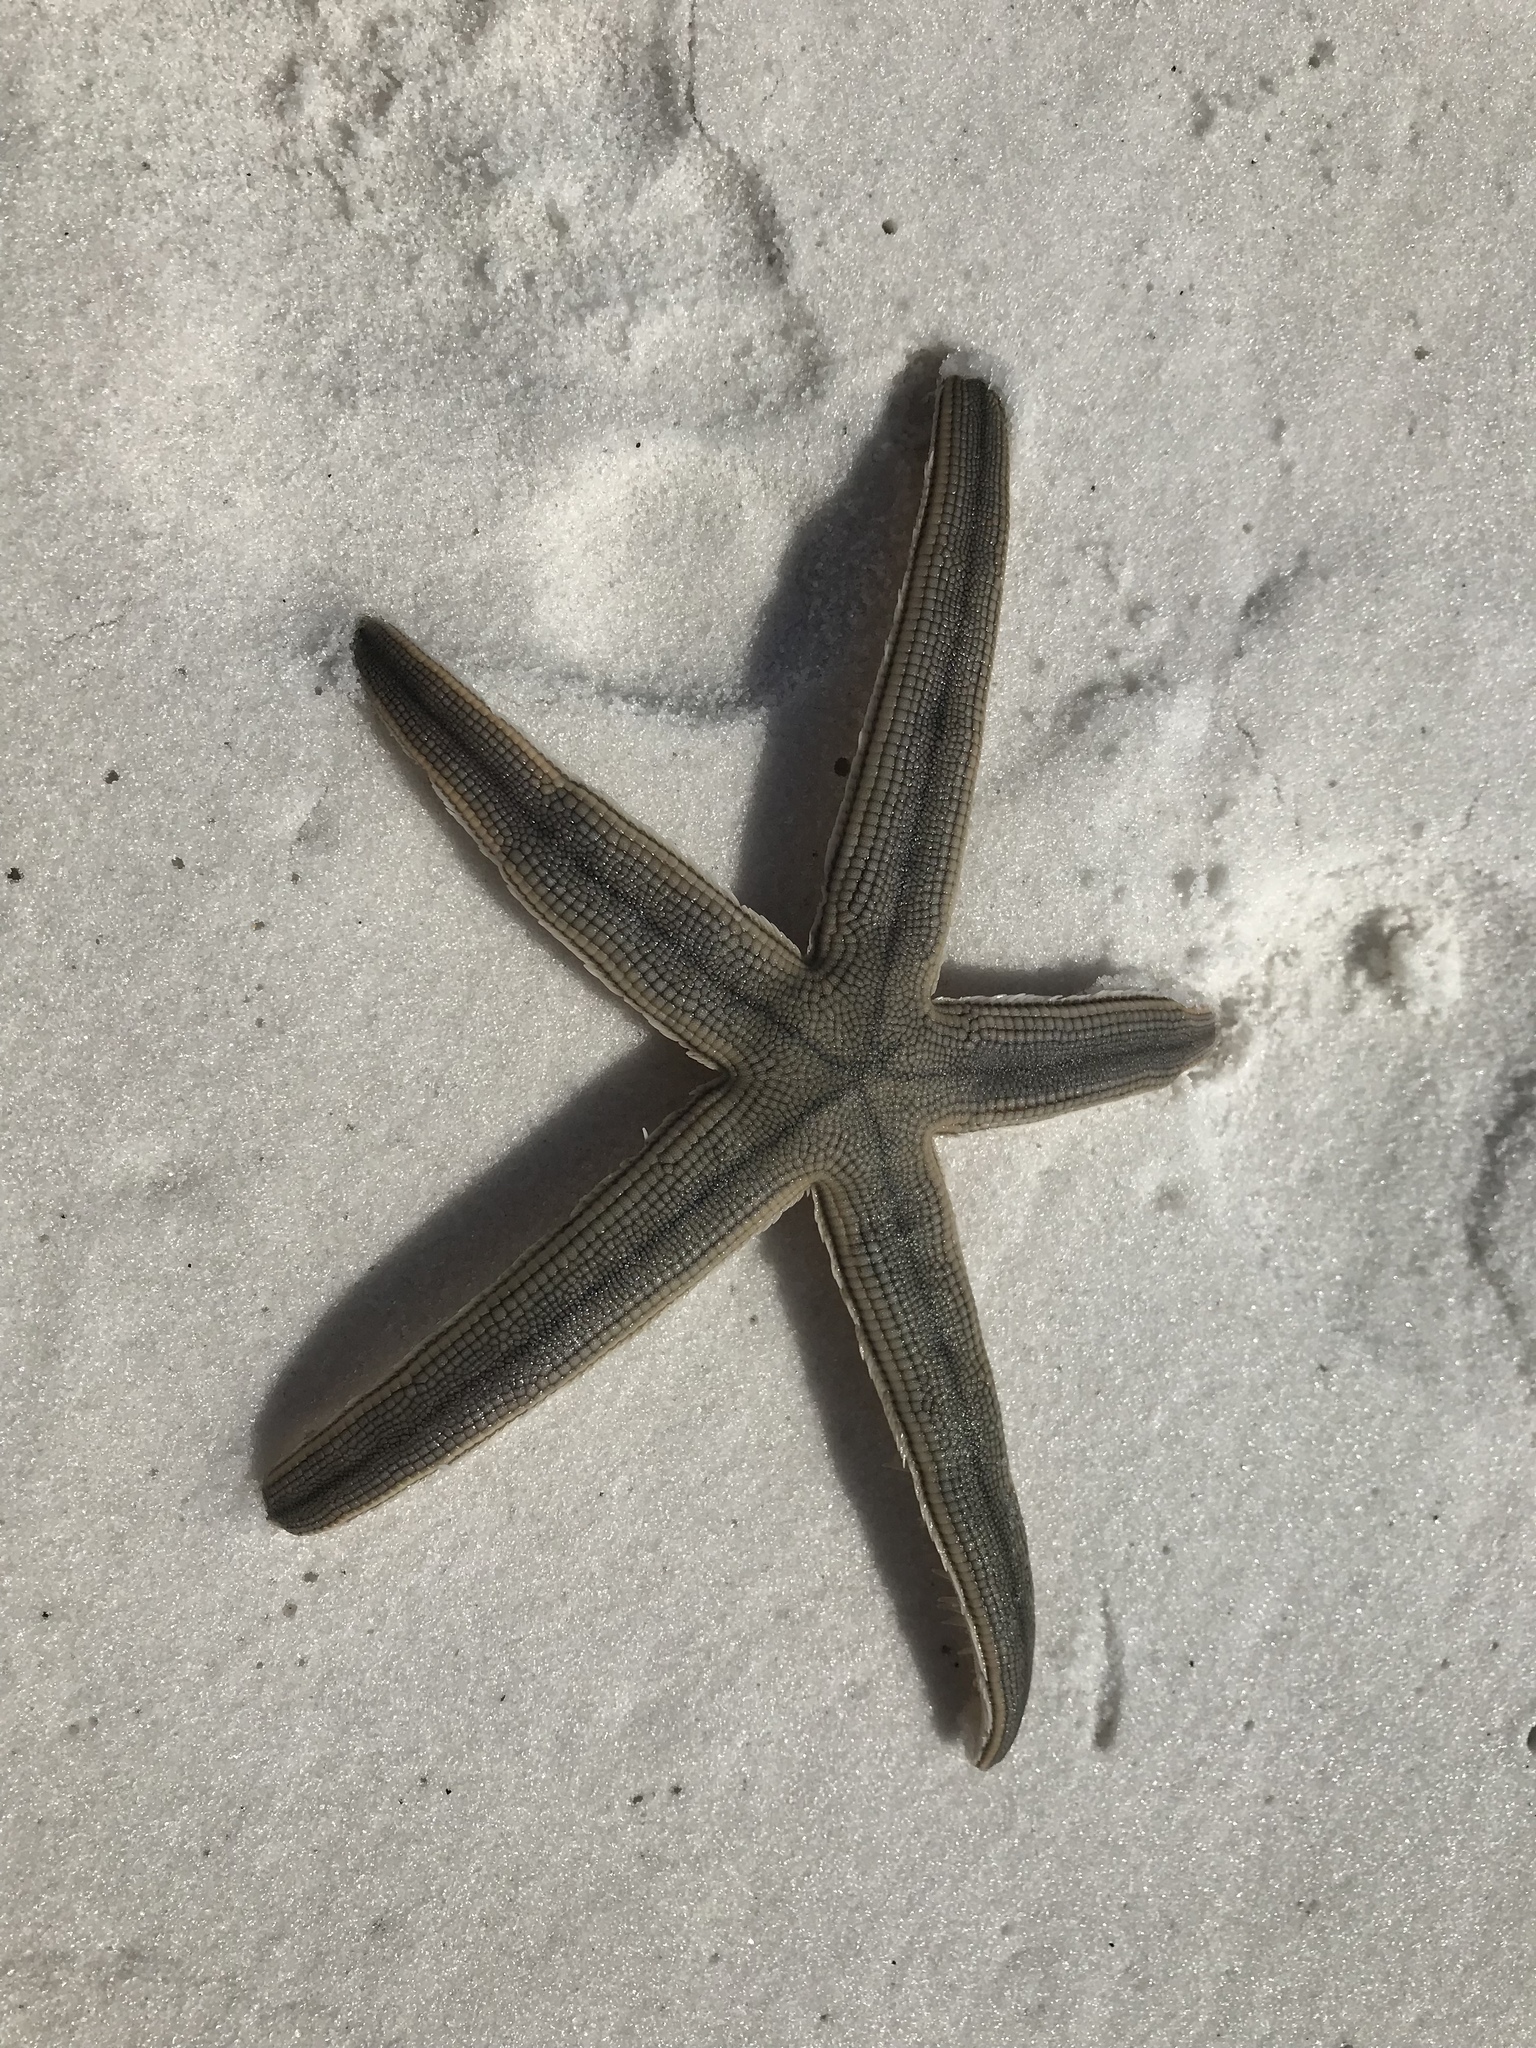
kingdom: Animalia
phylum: Echinodermata
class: Asteroidea
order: Paxillosida
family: Luidiidae
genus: Luidia
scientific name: Luidia clathrata
